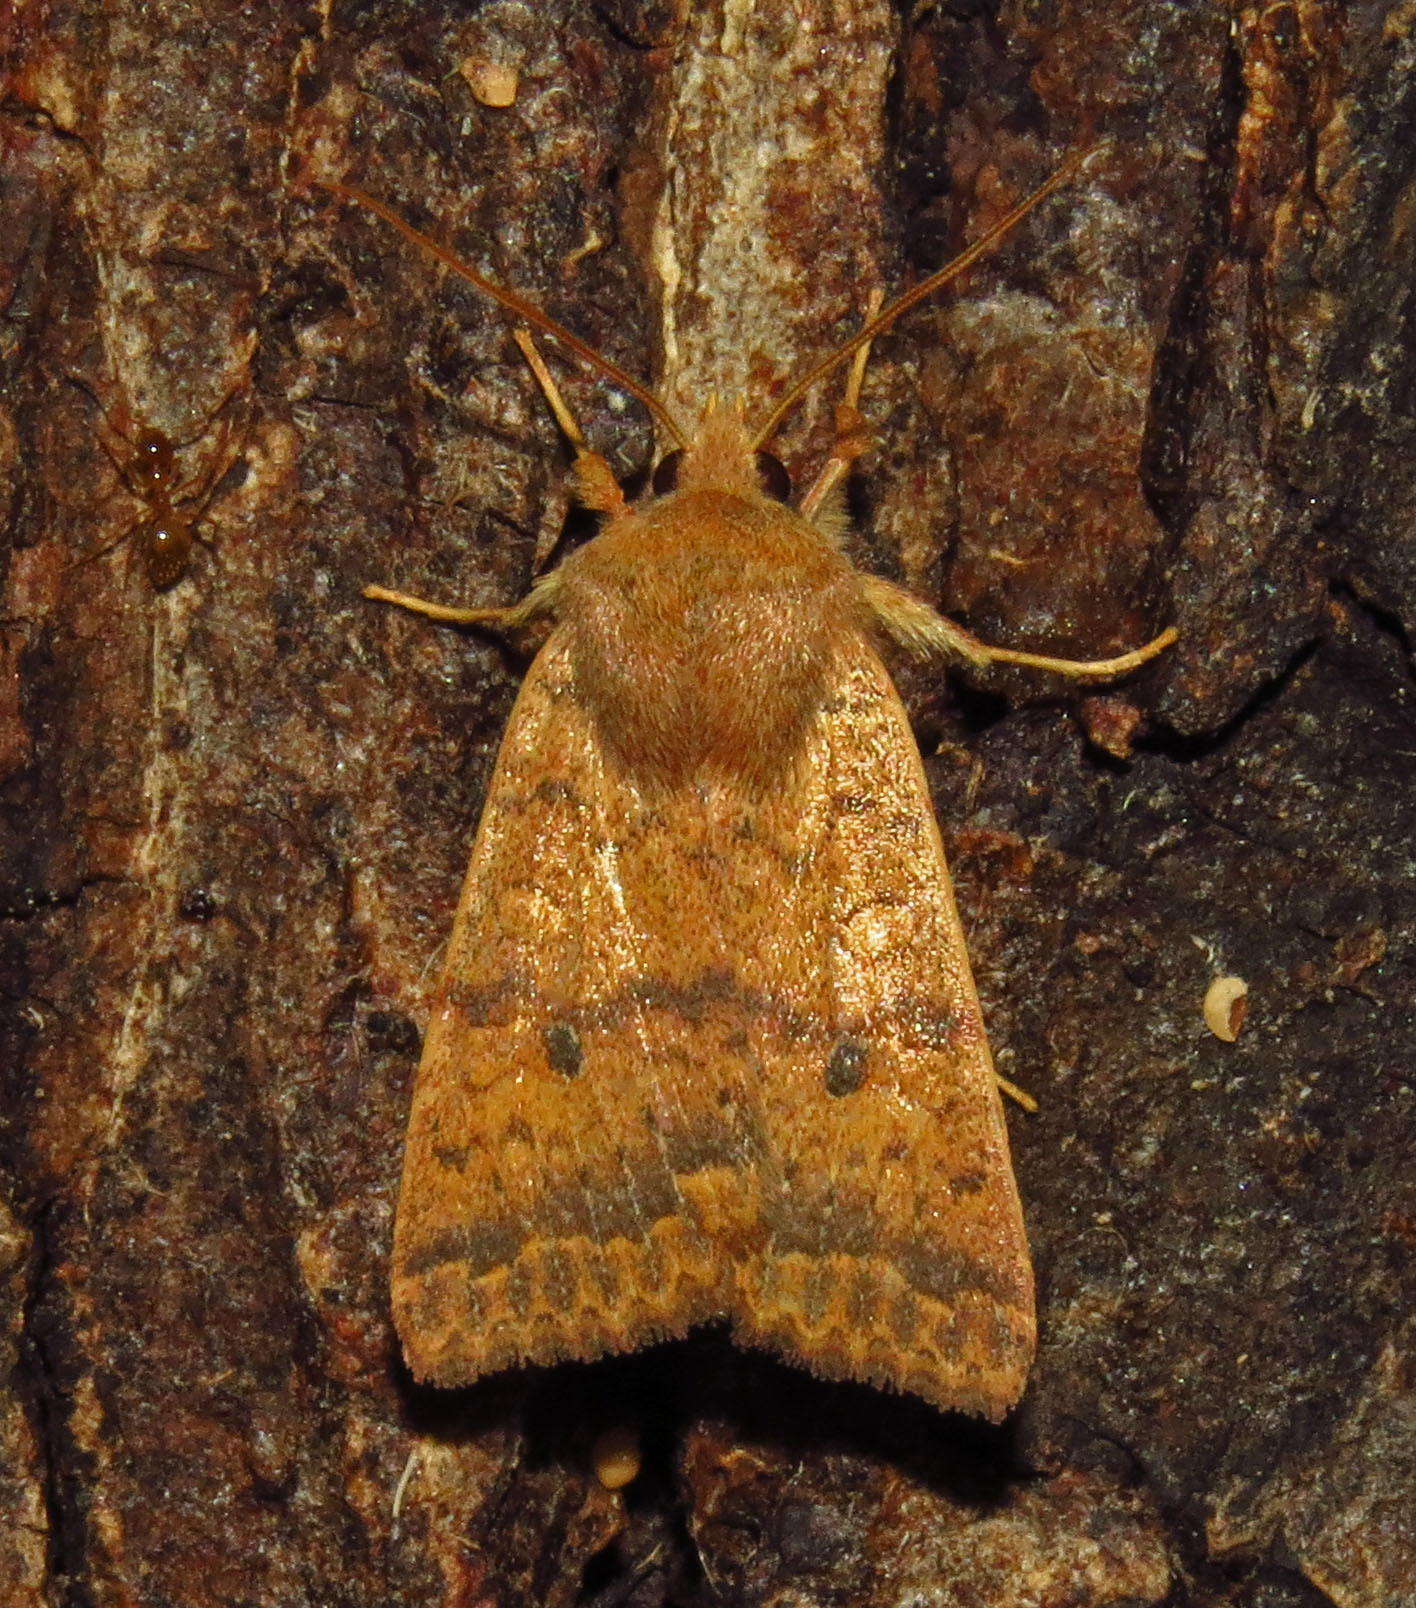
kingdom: Animalia
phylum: Arthropoda
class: Insecta
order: Lepidoptera
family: Noctuidae
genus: Agrochola
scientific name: Agrochola bicolorago
